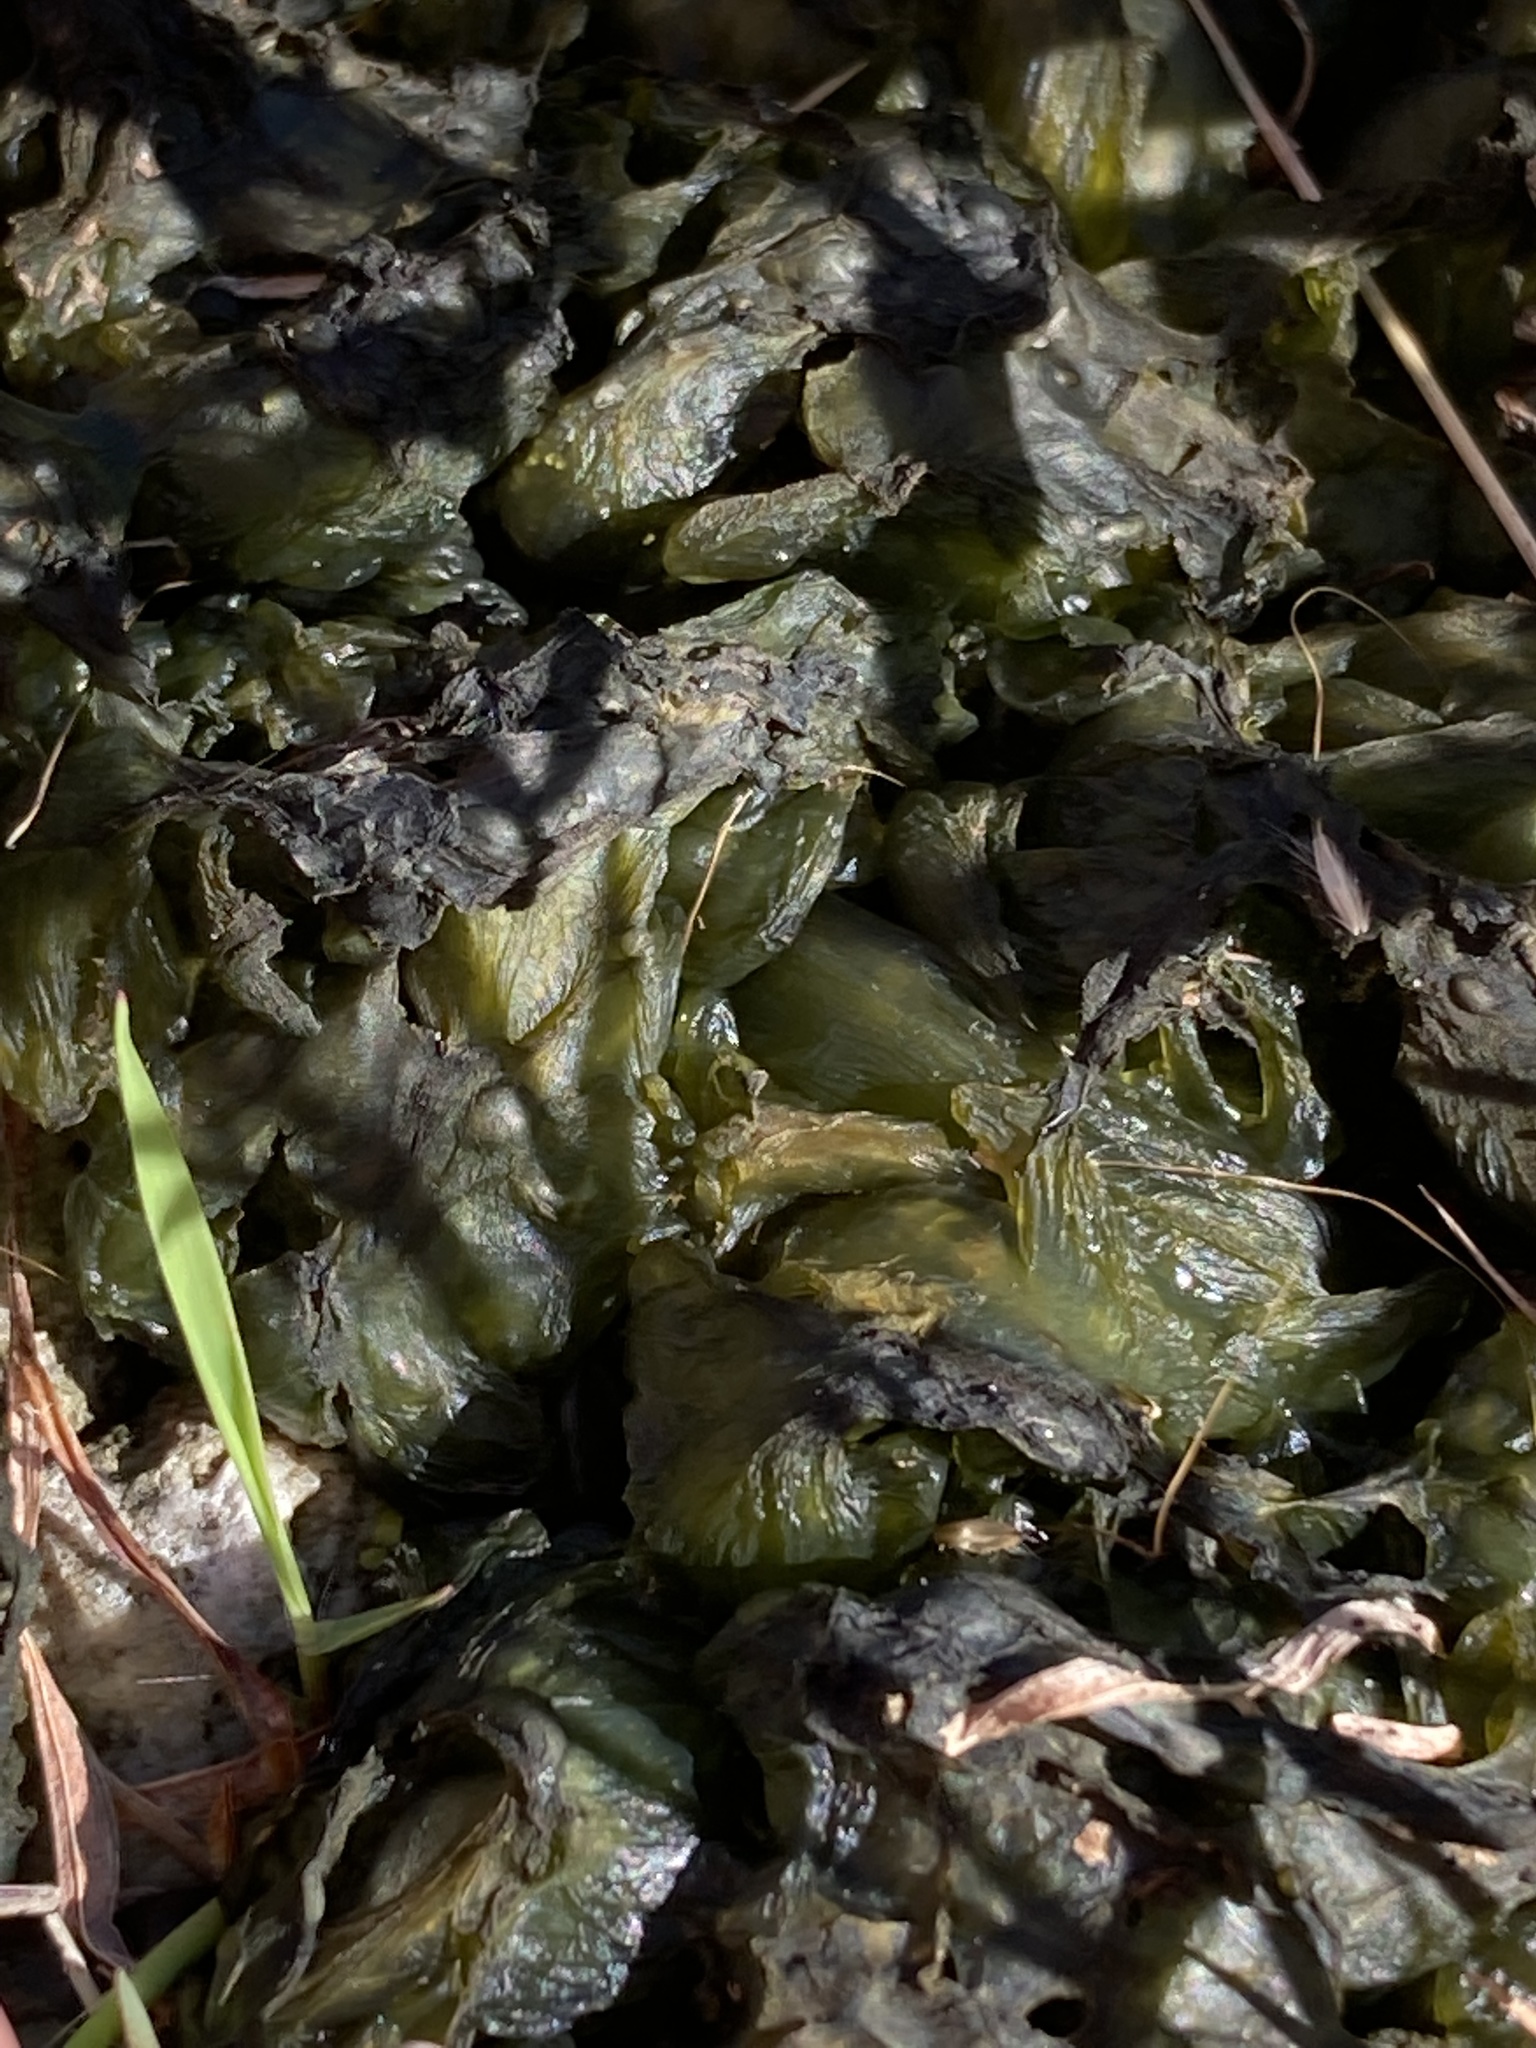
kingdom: Bacteria
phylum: Cyanobacteria
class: Cyanobacteriia
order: Cyanobacteriales
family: Nostocaceae
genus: Nostoc
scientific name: Nostoc commune
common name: Star jelly
